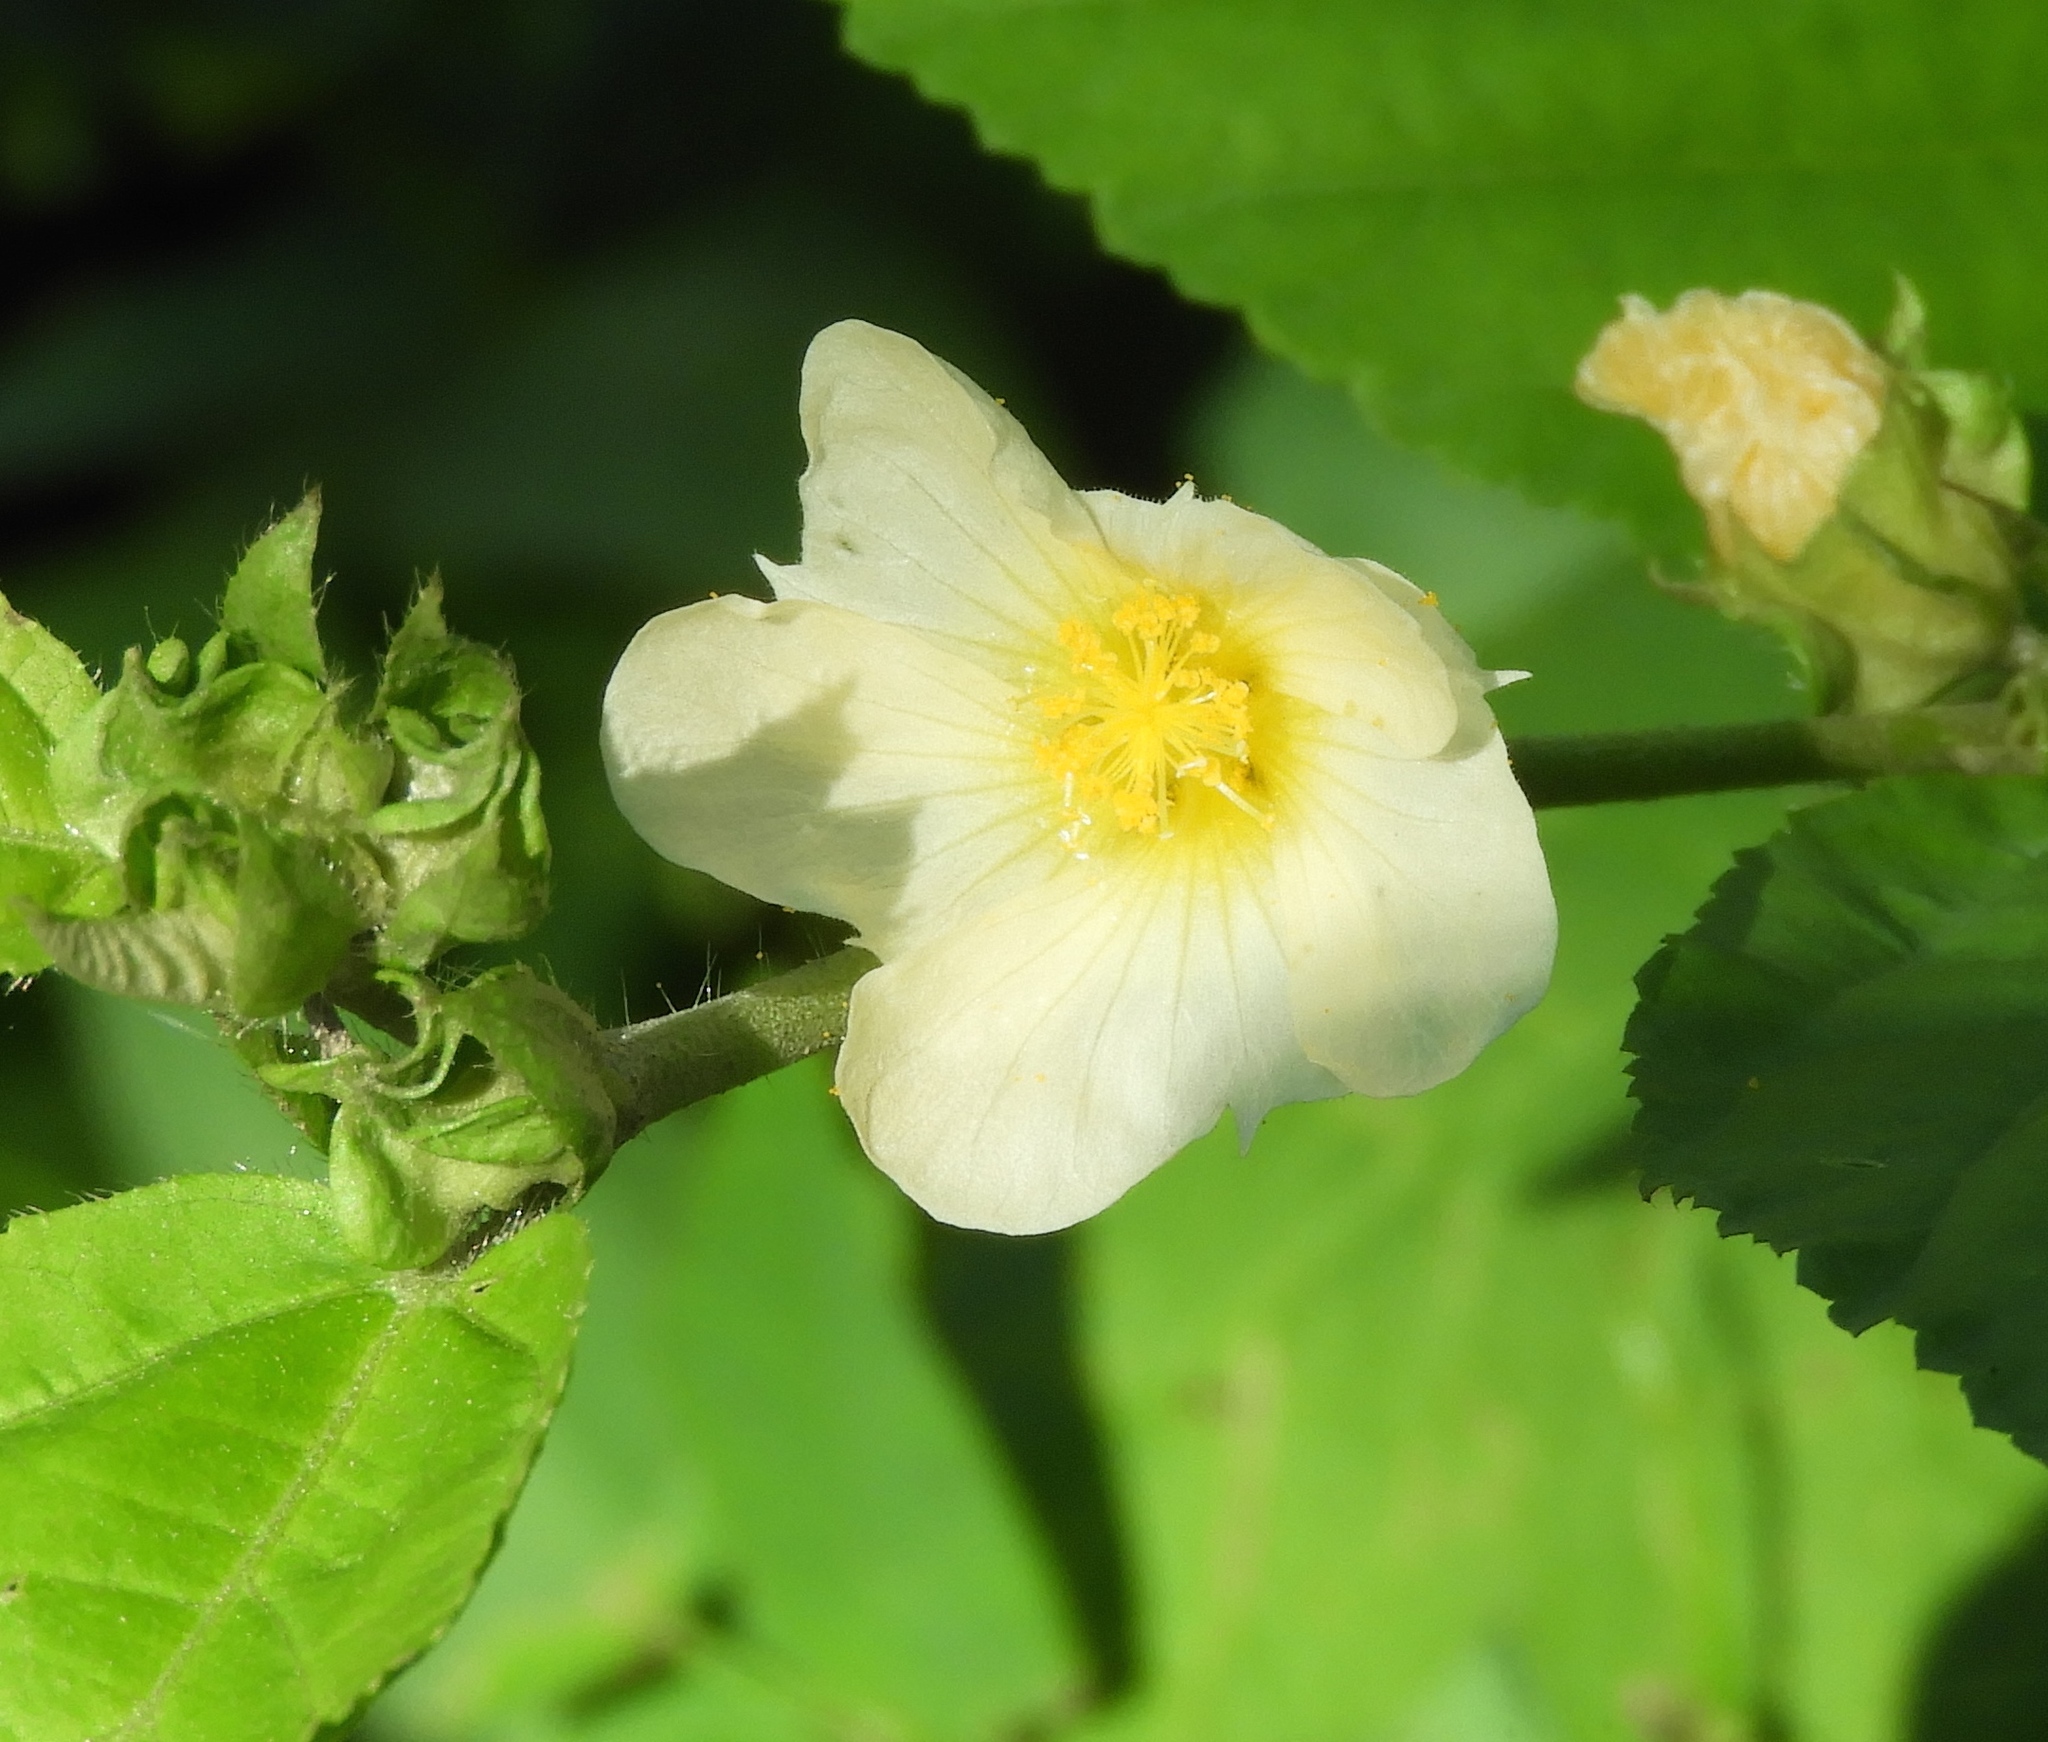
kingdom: Plantae
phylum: Tracheophyta
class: Magnoliopsida
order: Malvales
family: Malvaceae
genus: Sida
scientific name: Sida acuta
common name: Common wireweed
